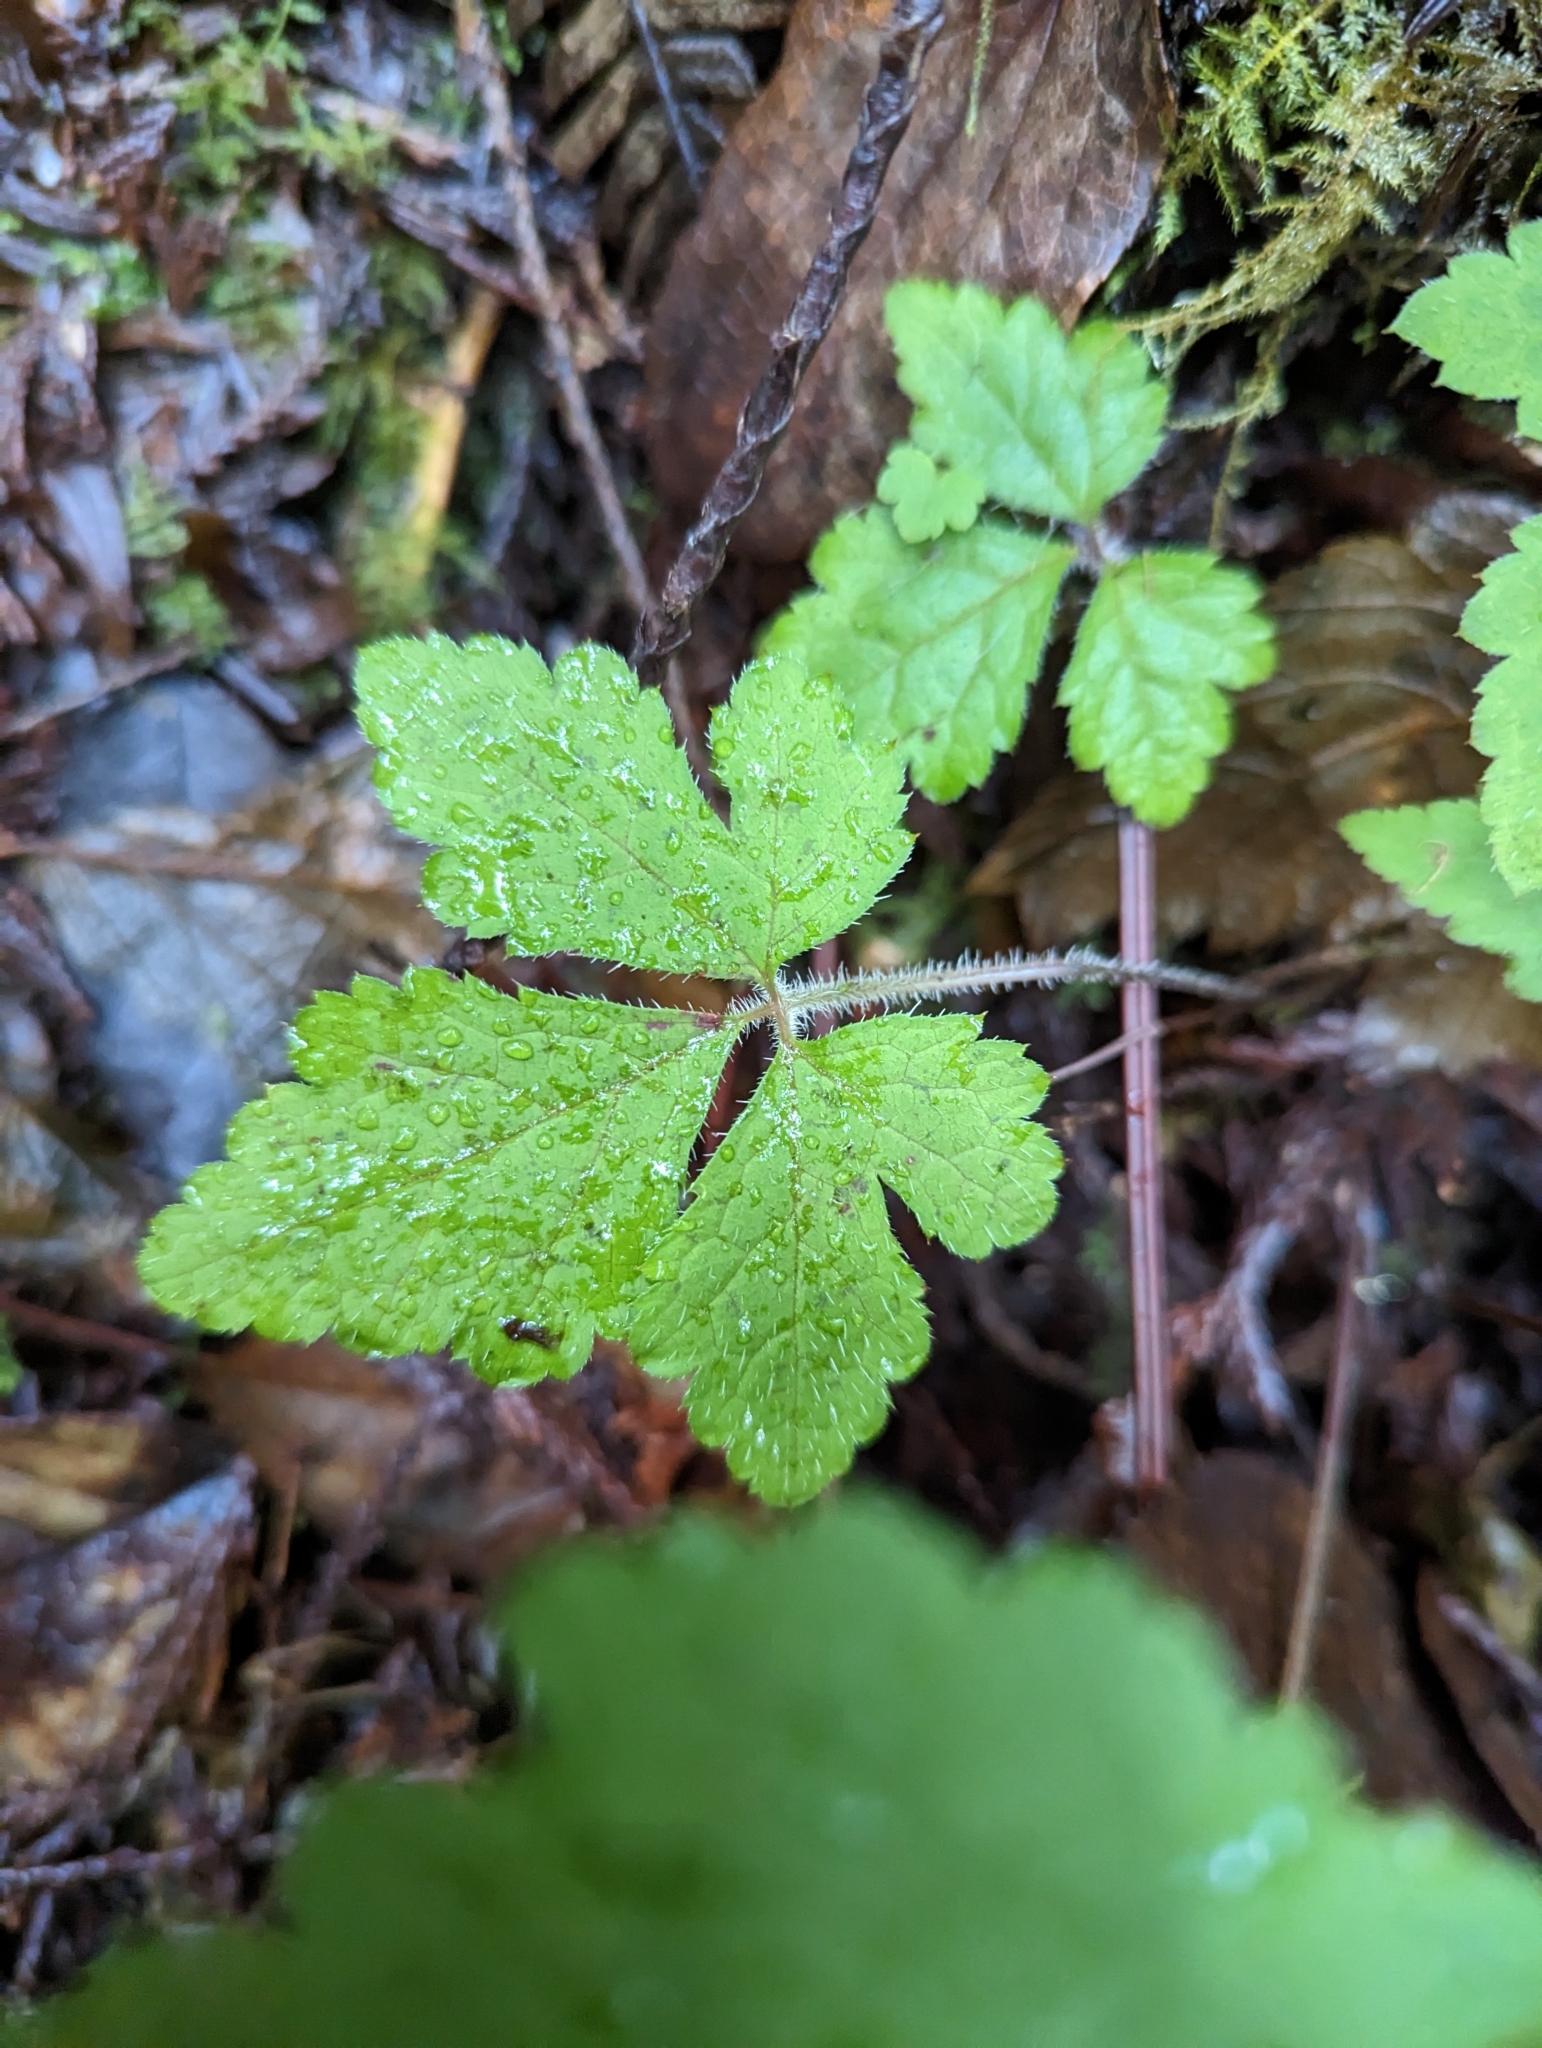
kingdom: Plantae
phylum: Tracheophyta
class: Magnoliopsida
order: Saxifragales
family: Saxifragaceae
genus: Tiarella
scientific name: Tiarella trifoliata
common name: Sugar-scoop
